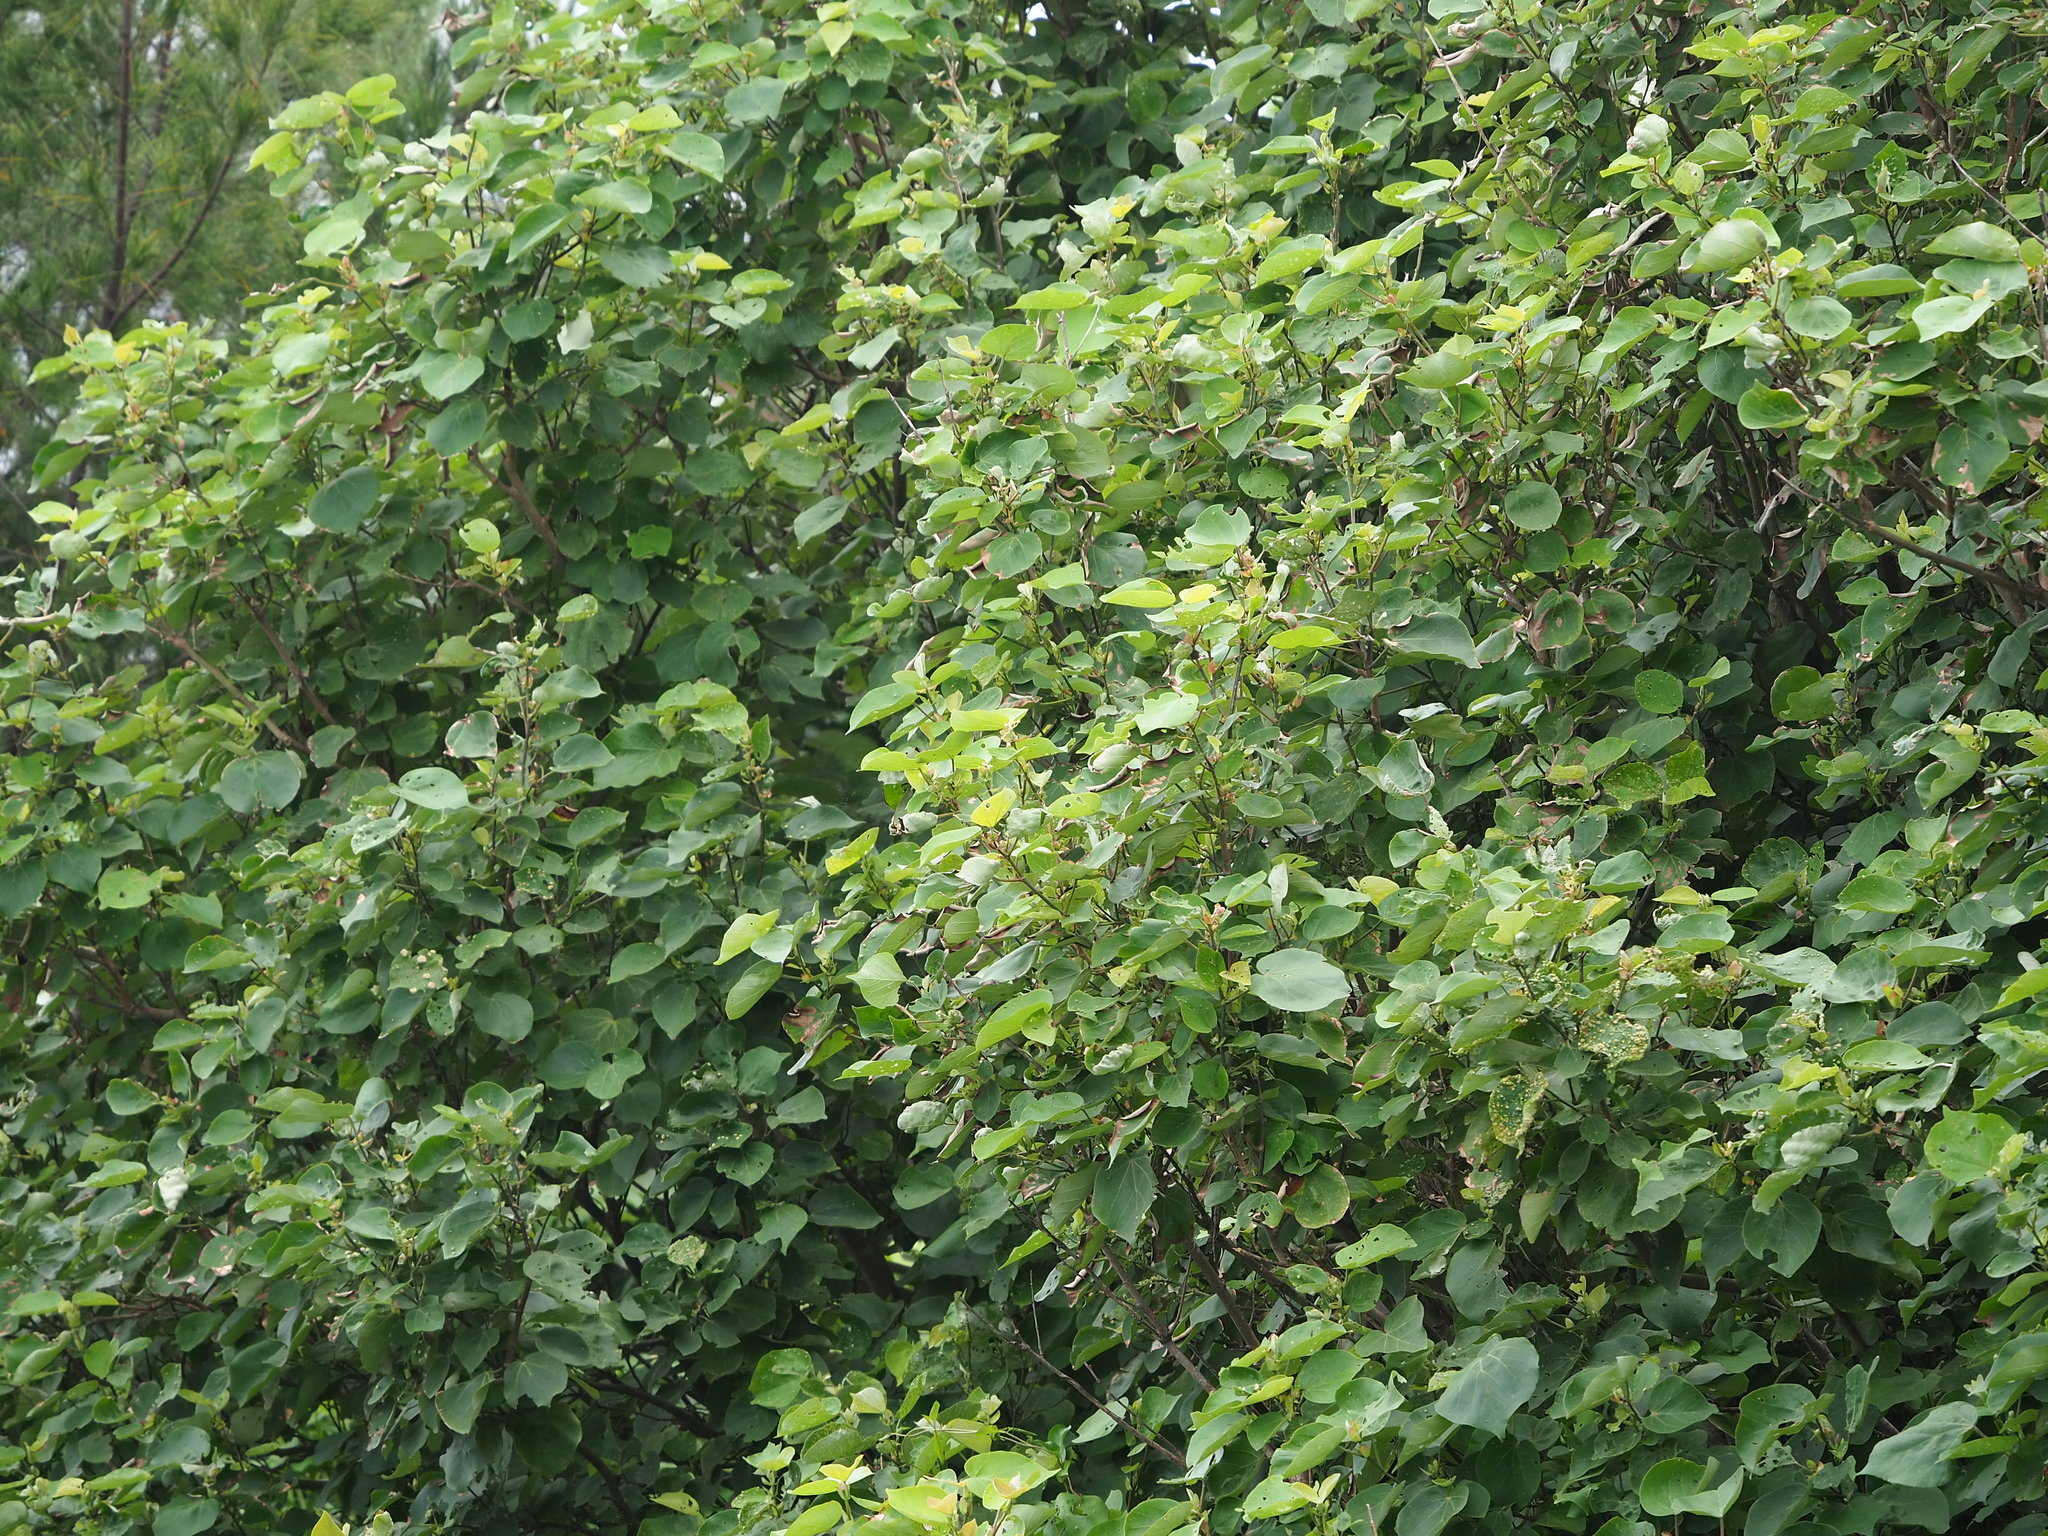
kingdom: Plantae
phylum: Tracheophyta
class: Magnoliopsida
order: Malvales
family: Malvaceae
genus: Talipariti
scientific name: Talipariti tiliaceum
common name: Sea hibiscus
